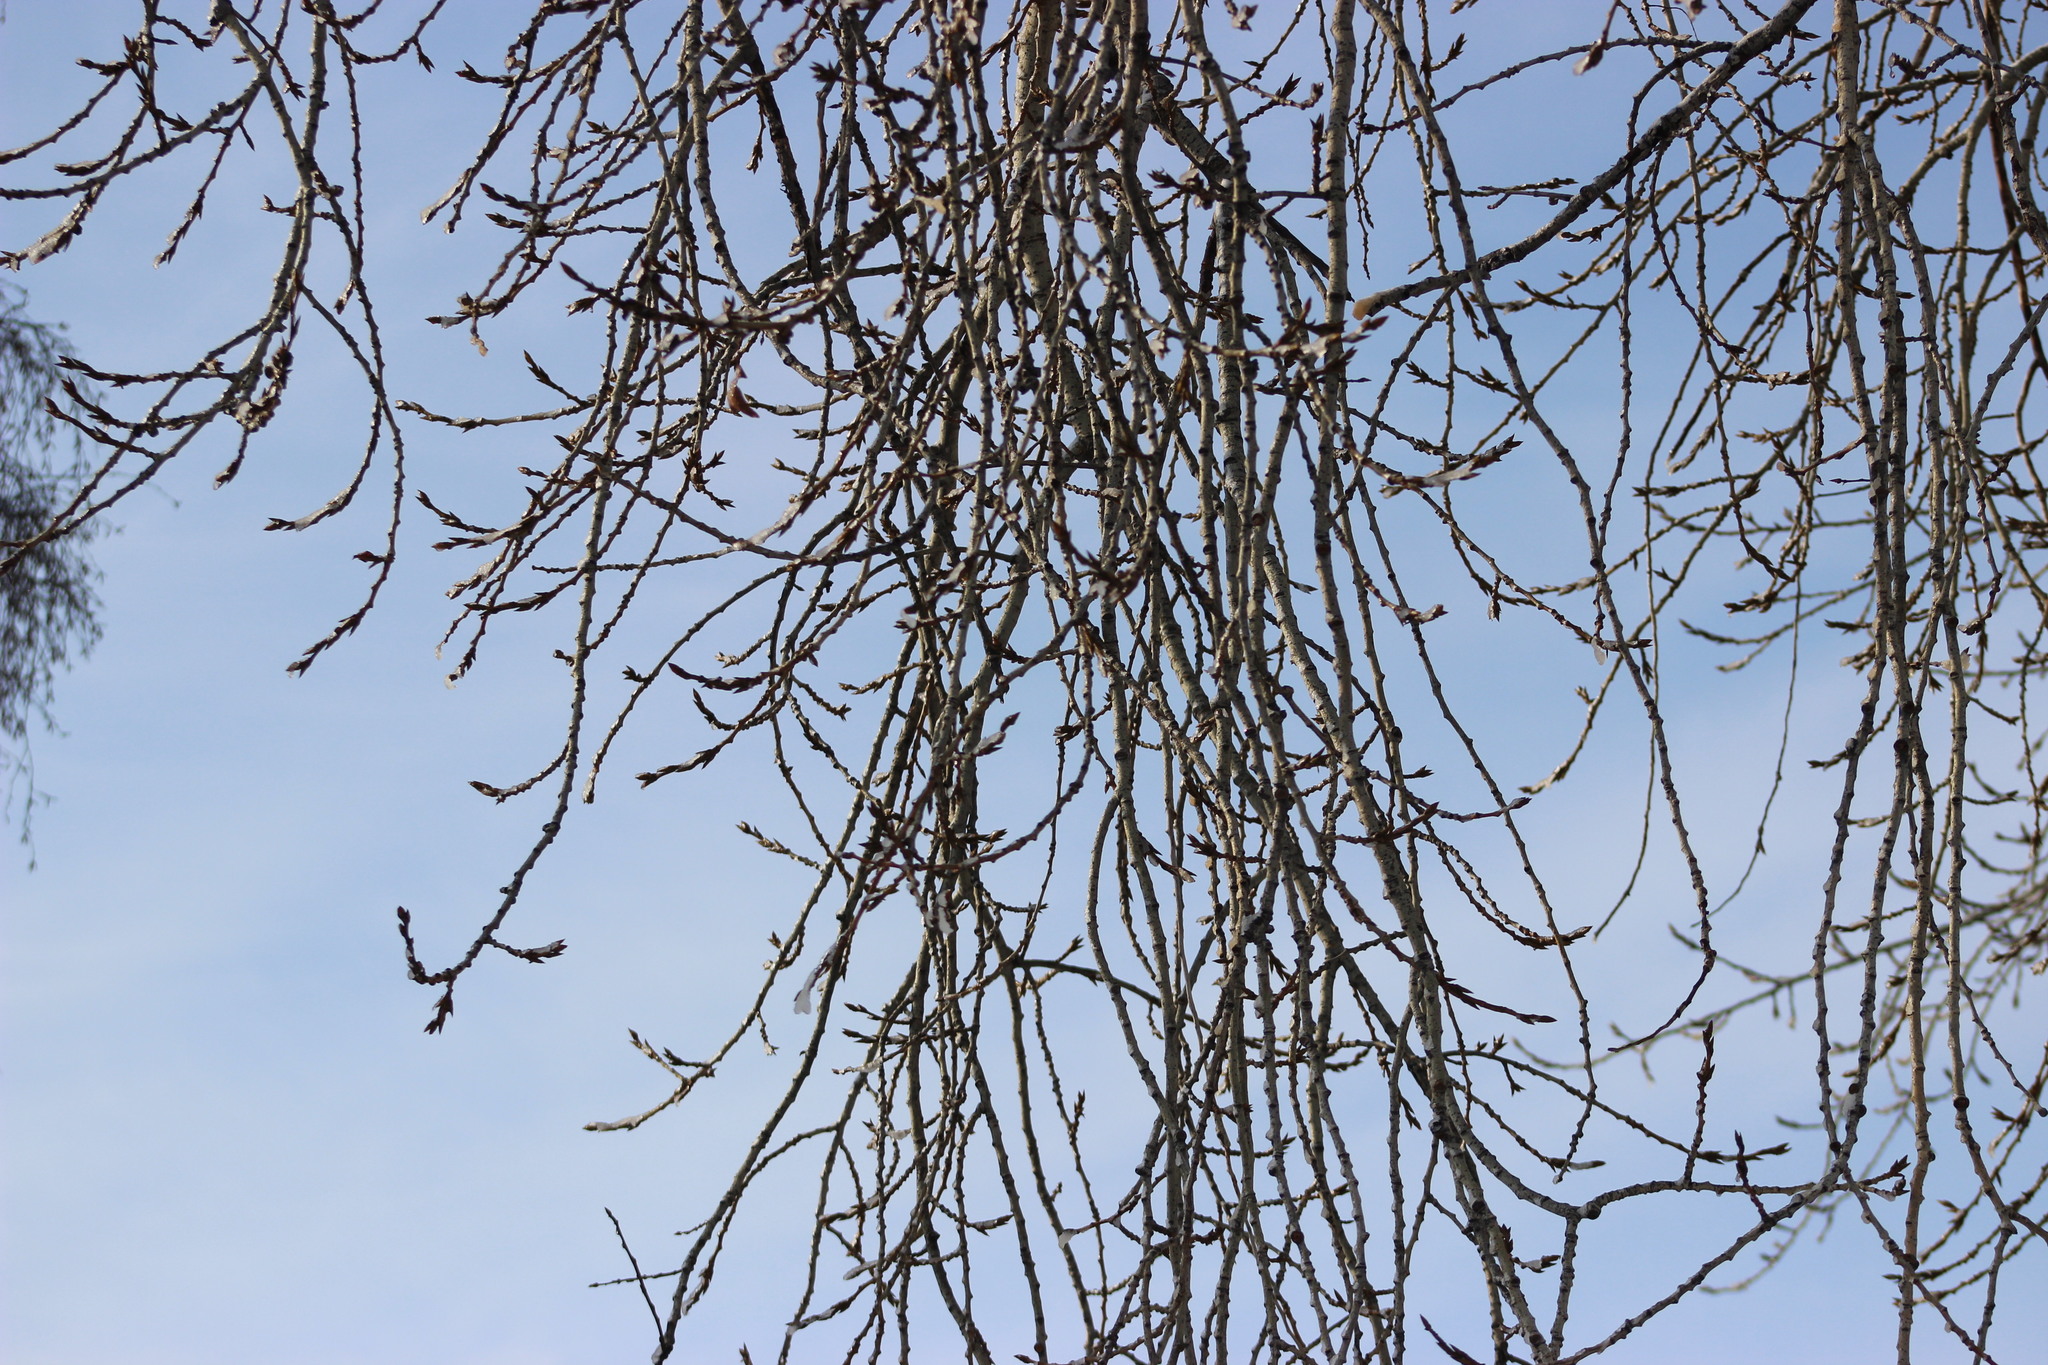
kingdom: Plantae
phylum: Tracheophyta
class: Magnoliopsida
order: Malpighiales
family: Salicaceae
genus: Populus
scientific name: Populus tremula
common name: European aspen
